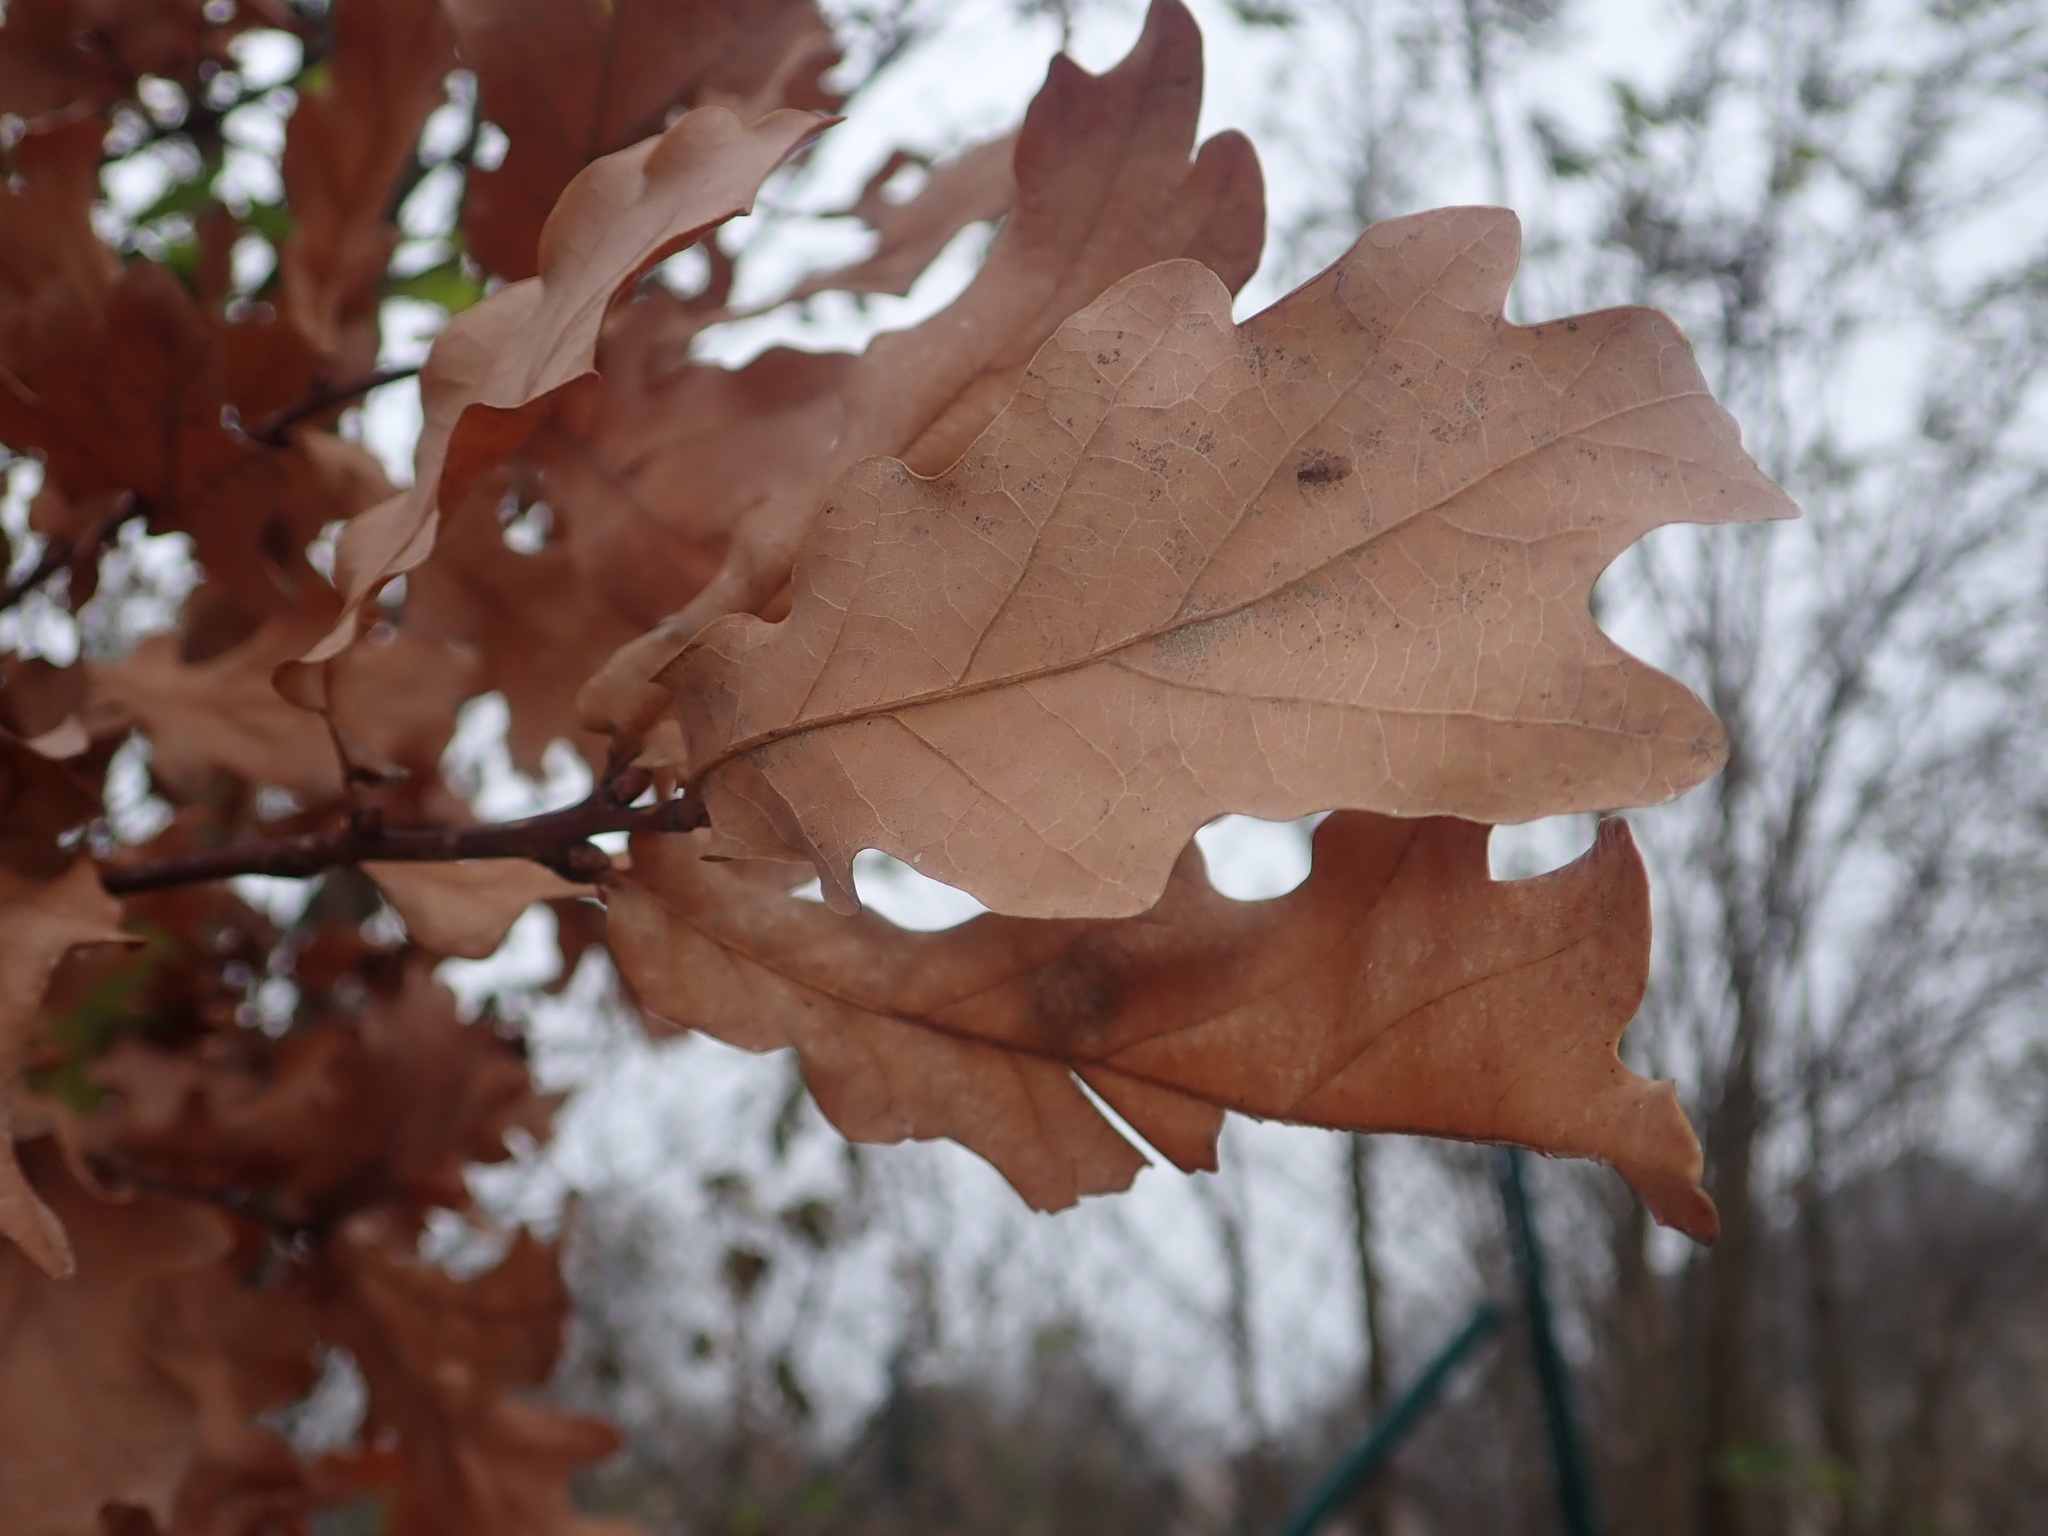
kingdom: Plantae
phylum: Tracheophyta
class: Magnoliopsida
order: Fagales
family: Fagaceae
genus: Quercus
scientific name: Quercus robur
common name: Pedunculate oak
